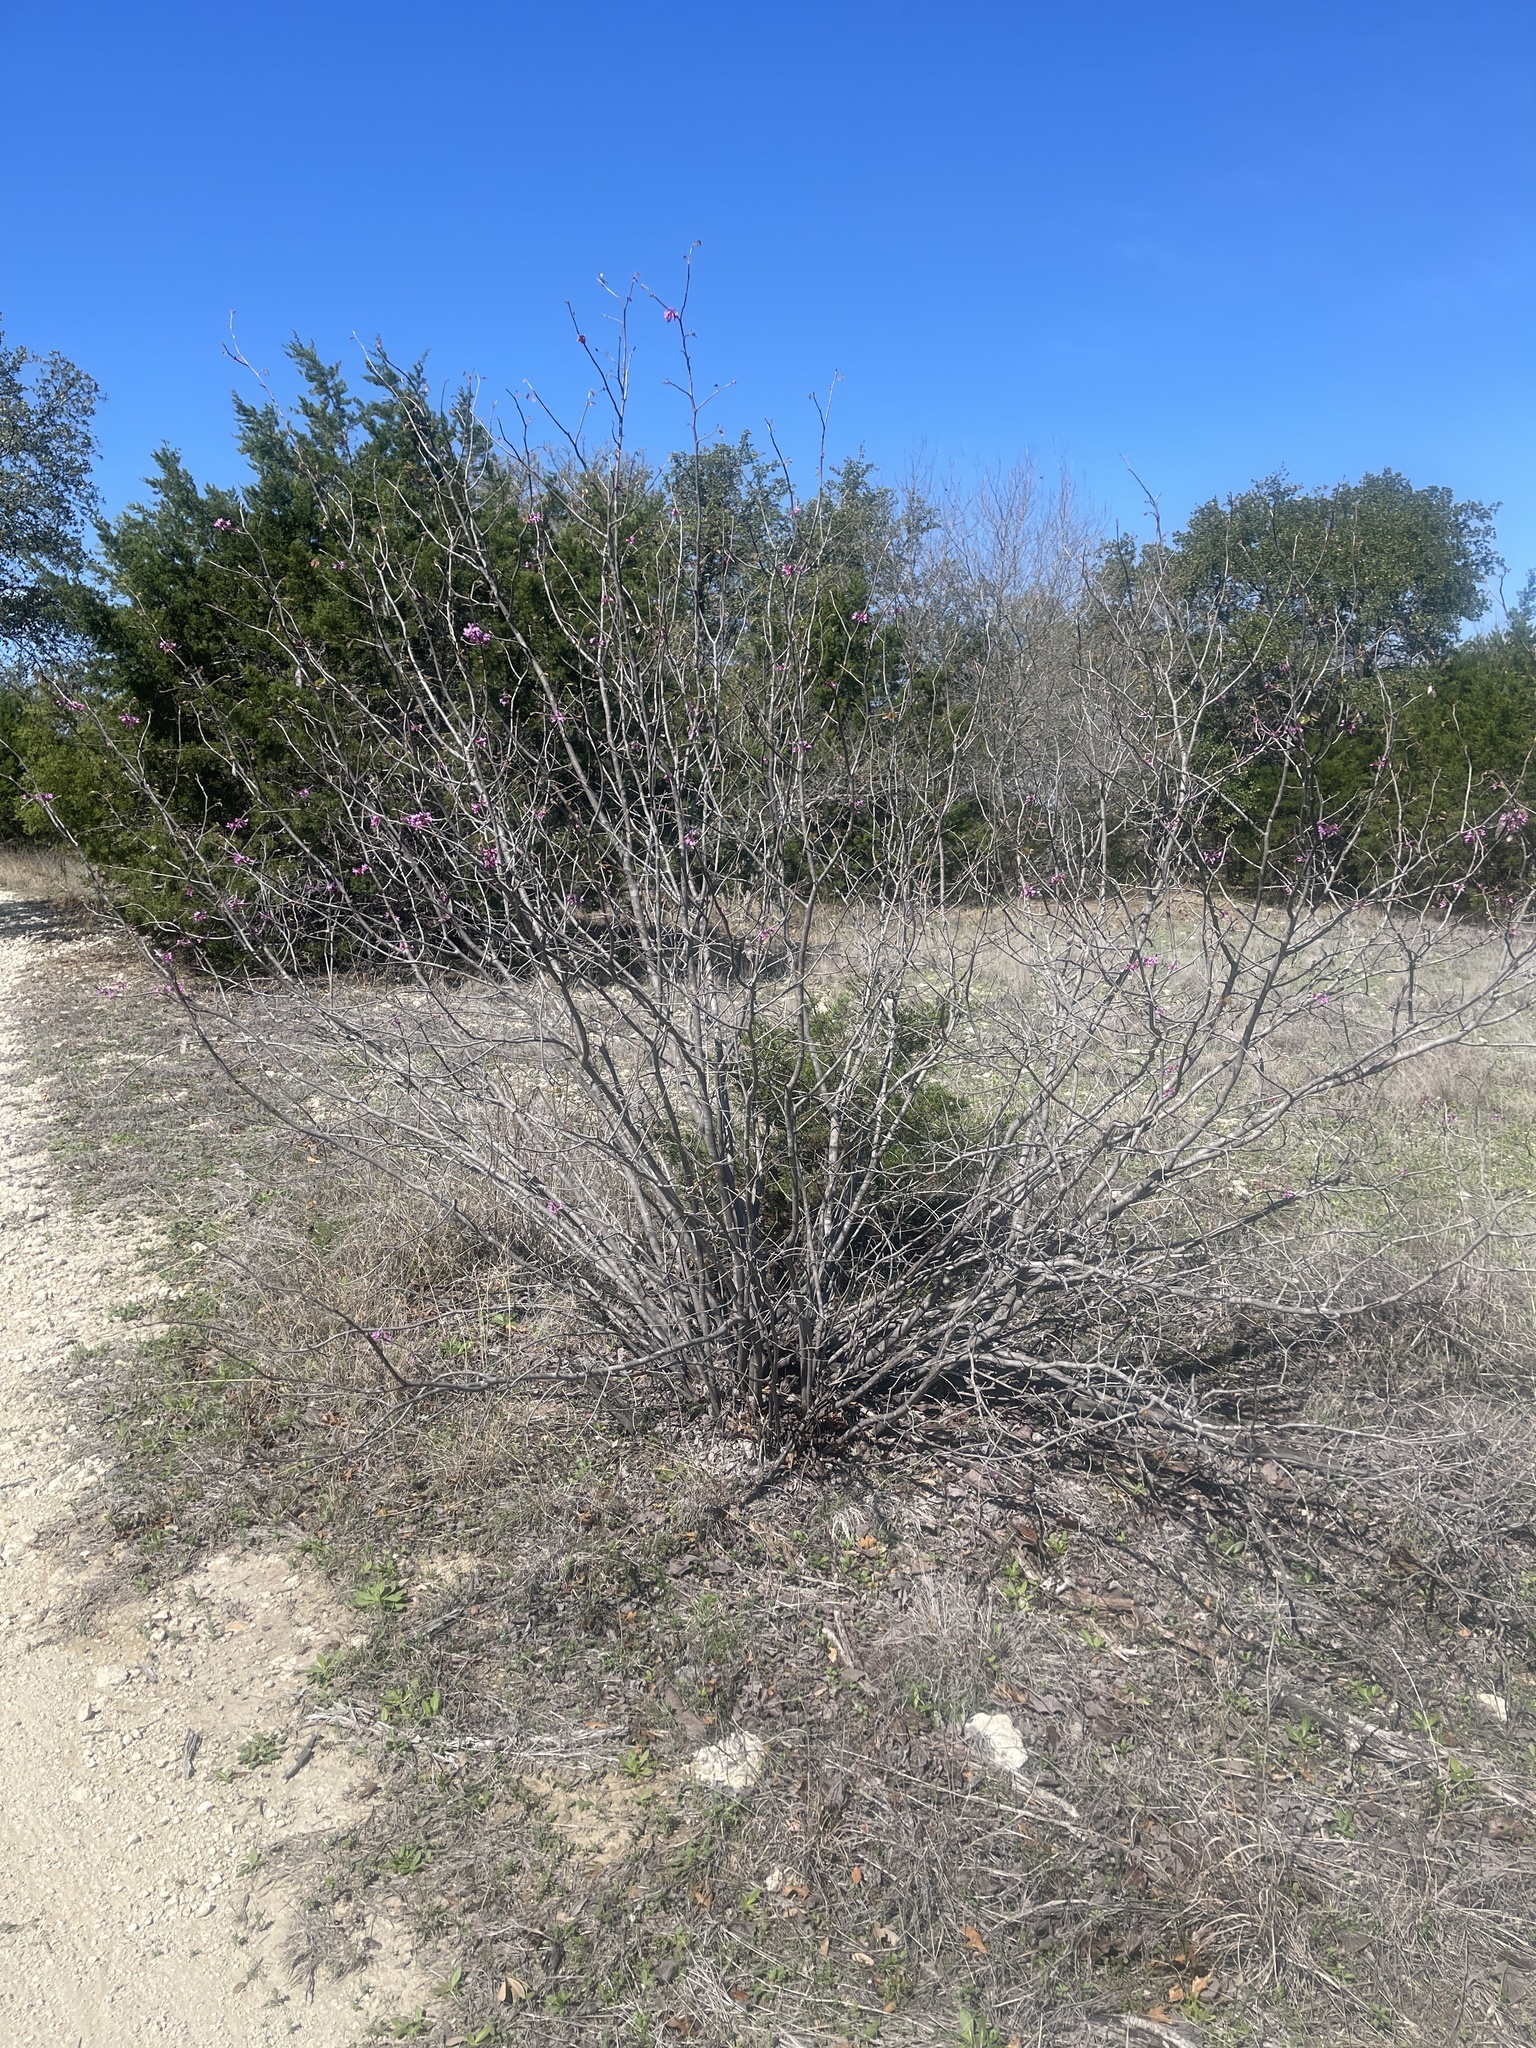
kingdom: Plantae
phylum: Tracheophyta
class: Magnoliopsida
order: Fabales
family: Fabaceae
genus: Cercis
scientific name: Cercis canadensis
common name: Eastern redbud
